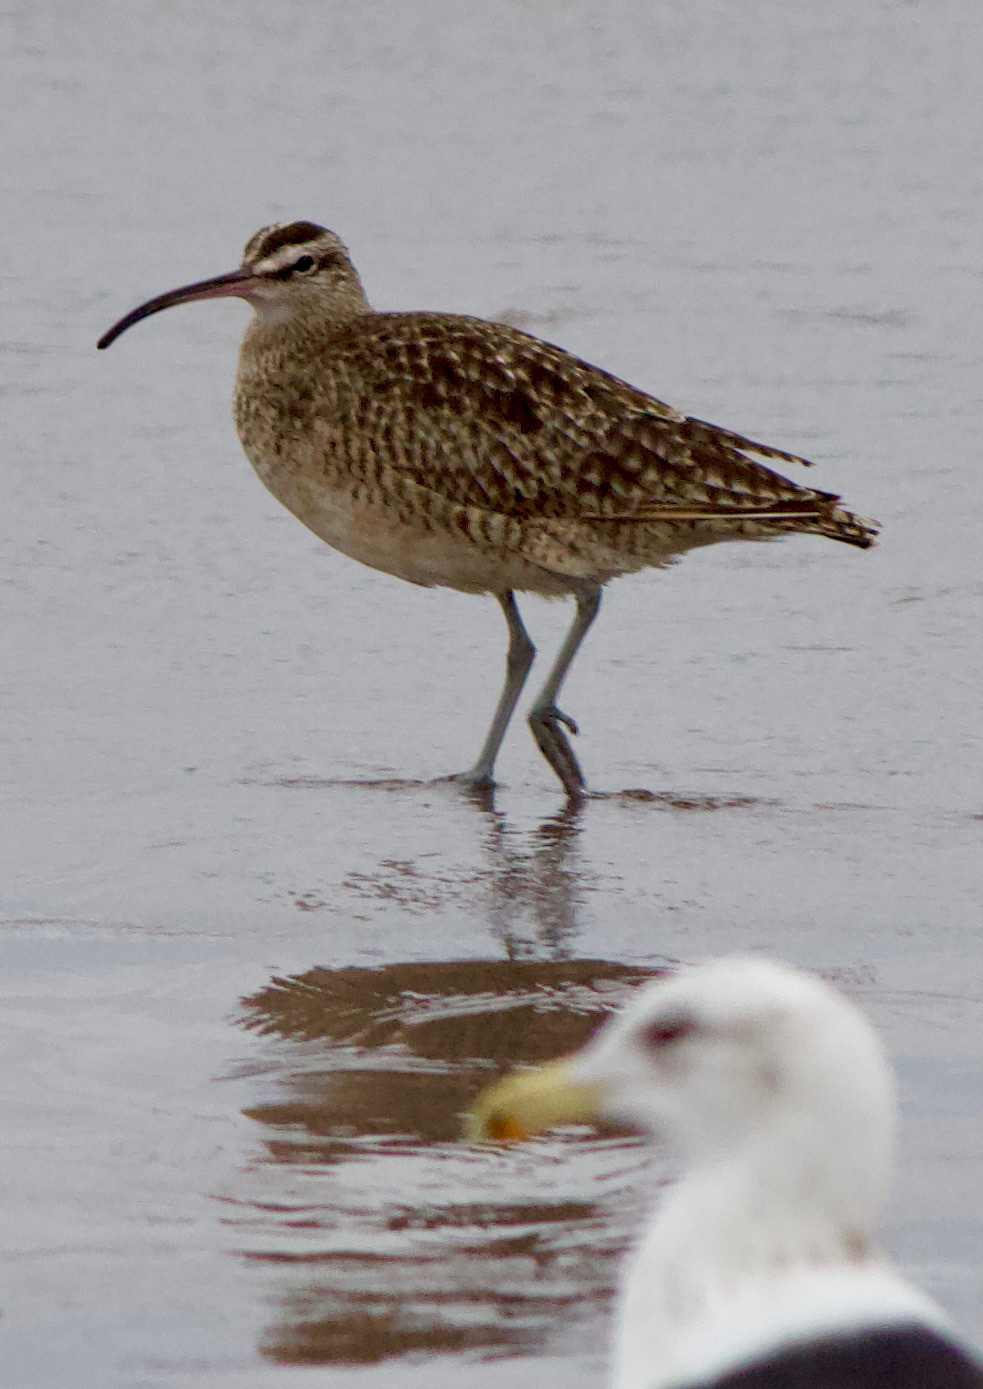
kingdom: Animalia
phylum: Chordata
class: Aves
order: Charadriiformes
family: Scolopacidae
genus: Numenius
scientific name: Numenius phaeopus
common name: Whimbrel
